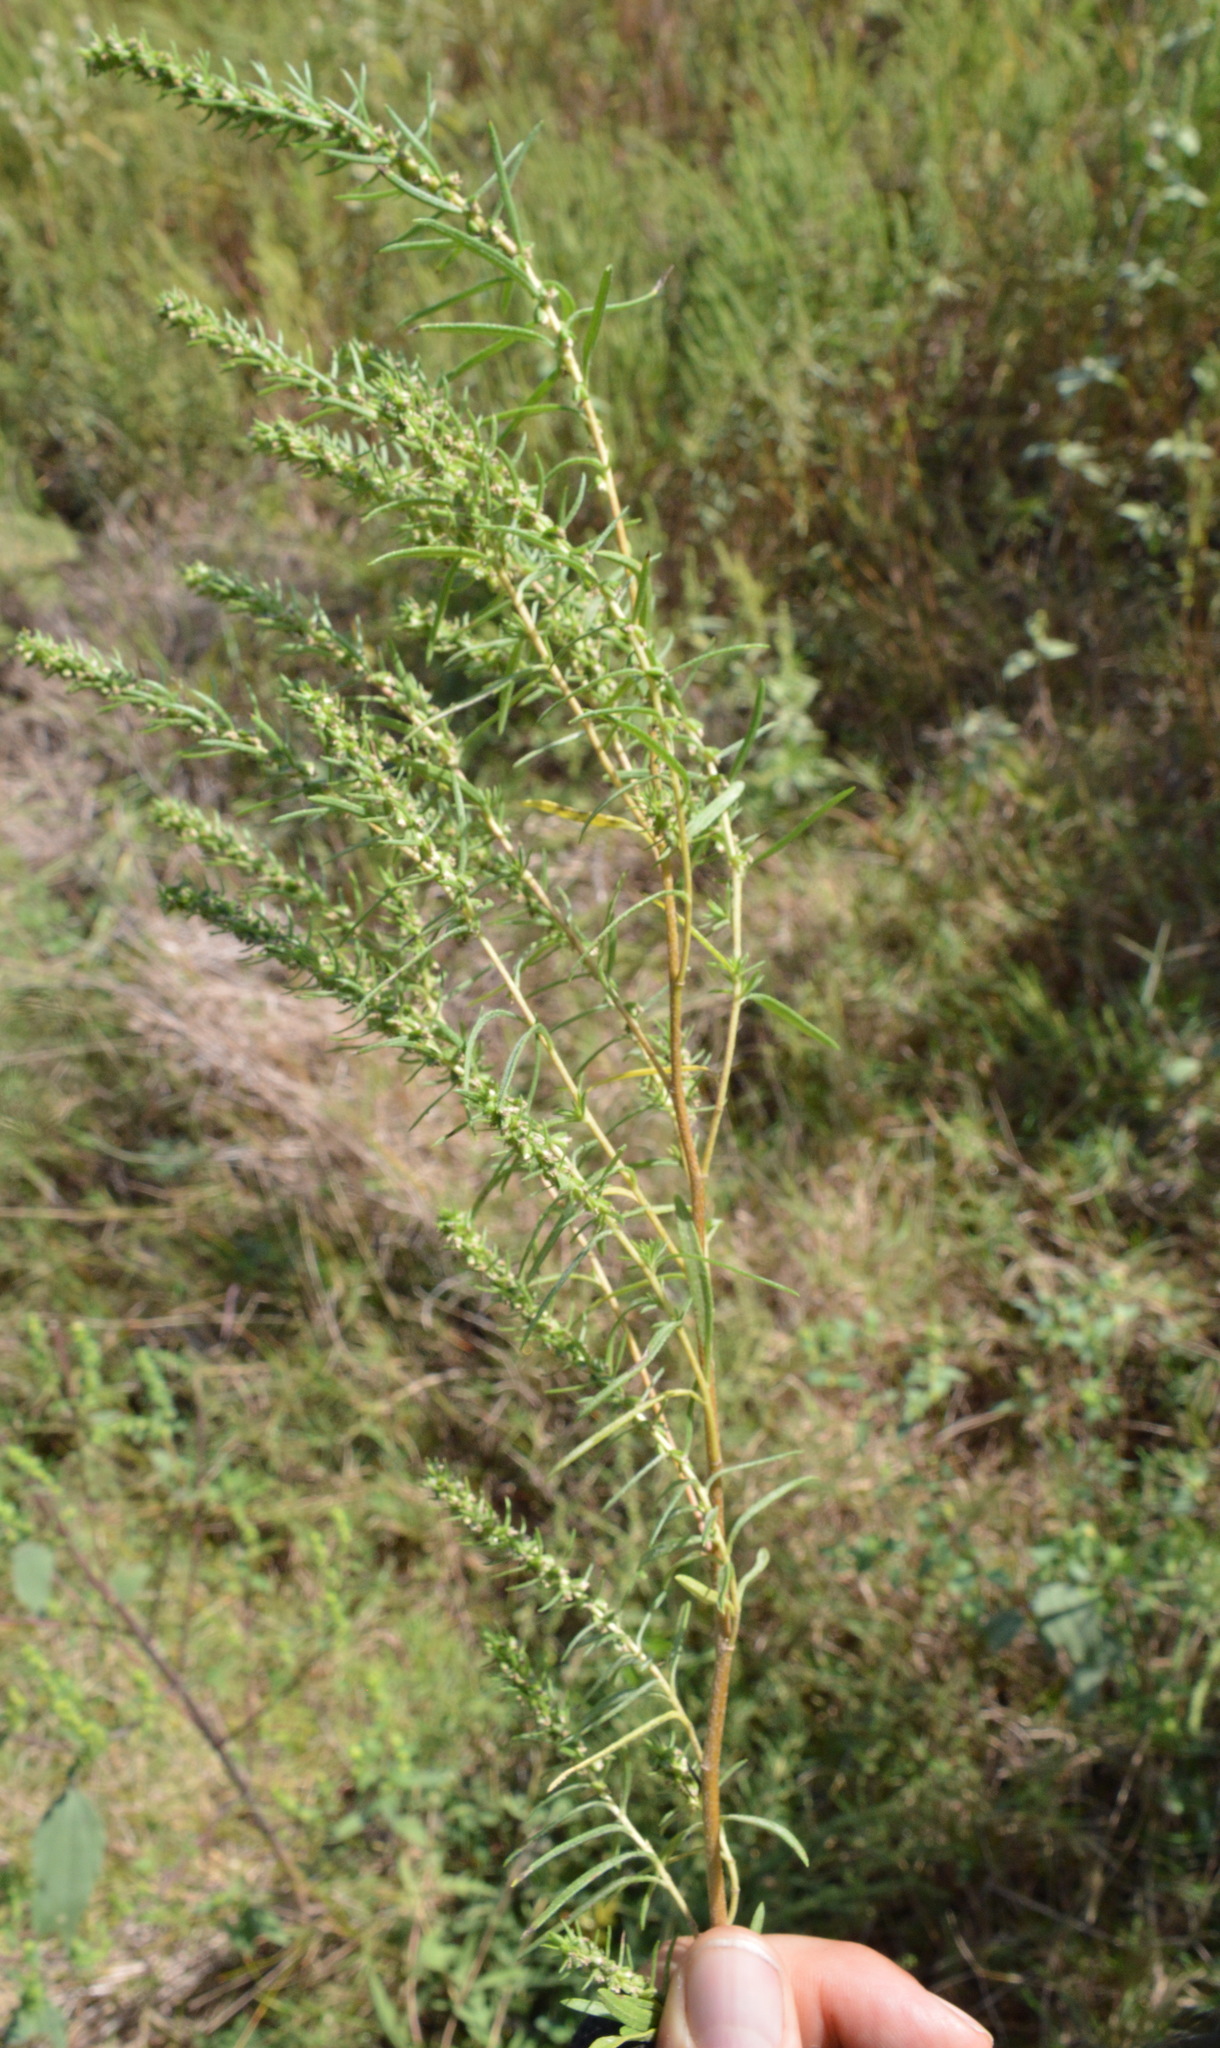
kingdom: Plantae
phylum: Tracheophyta
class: Magnoliopsida
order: Asterales
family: Asteraceae
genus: Iva
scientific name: Iva asperifolia
